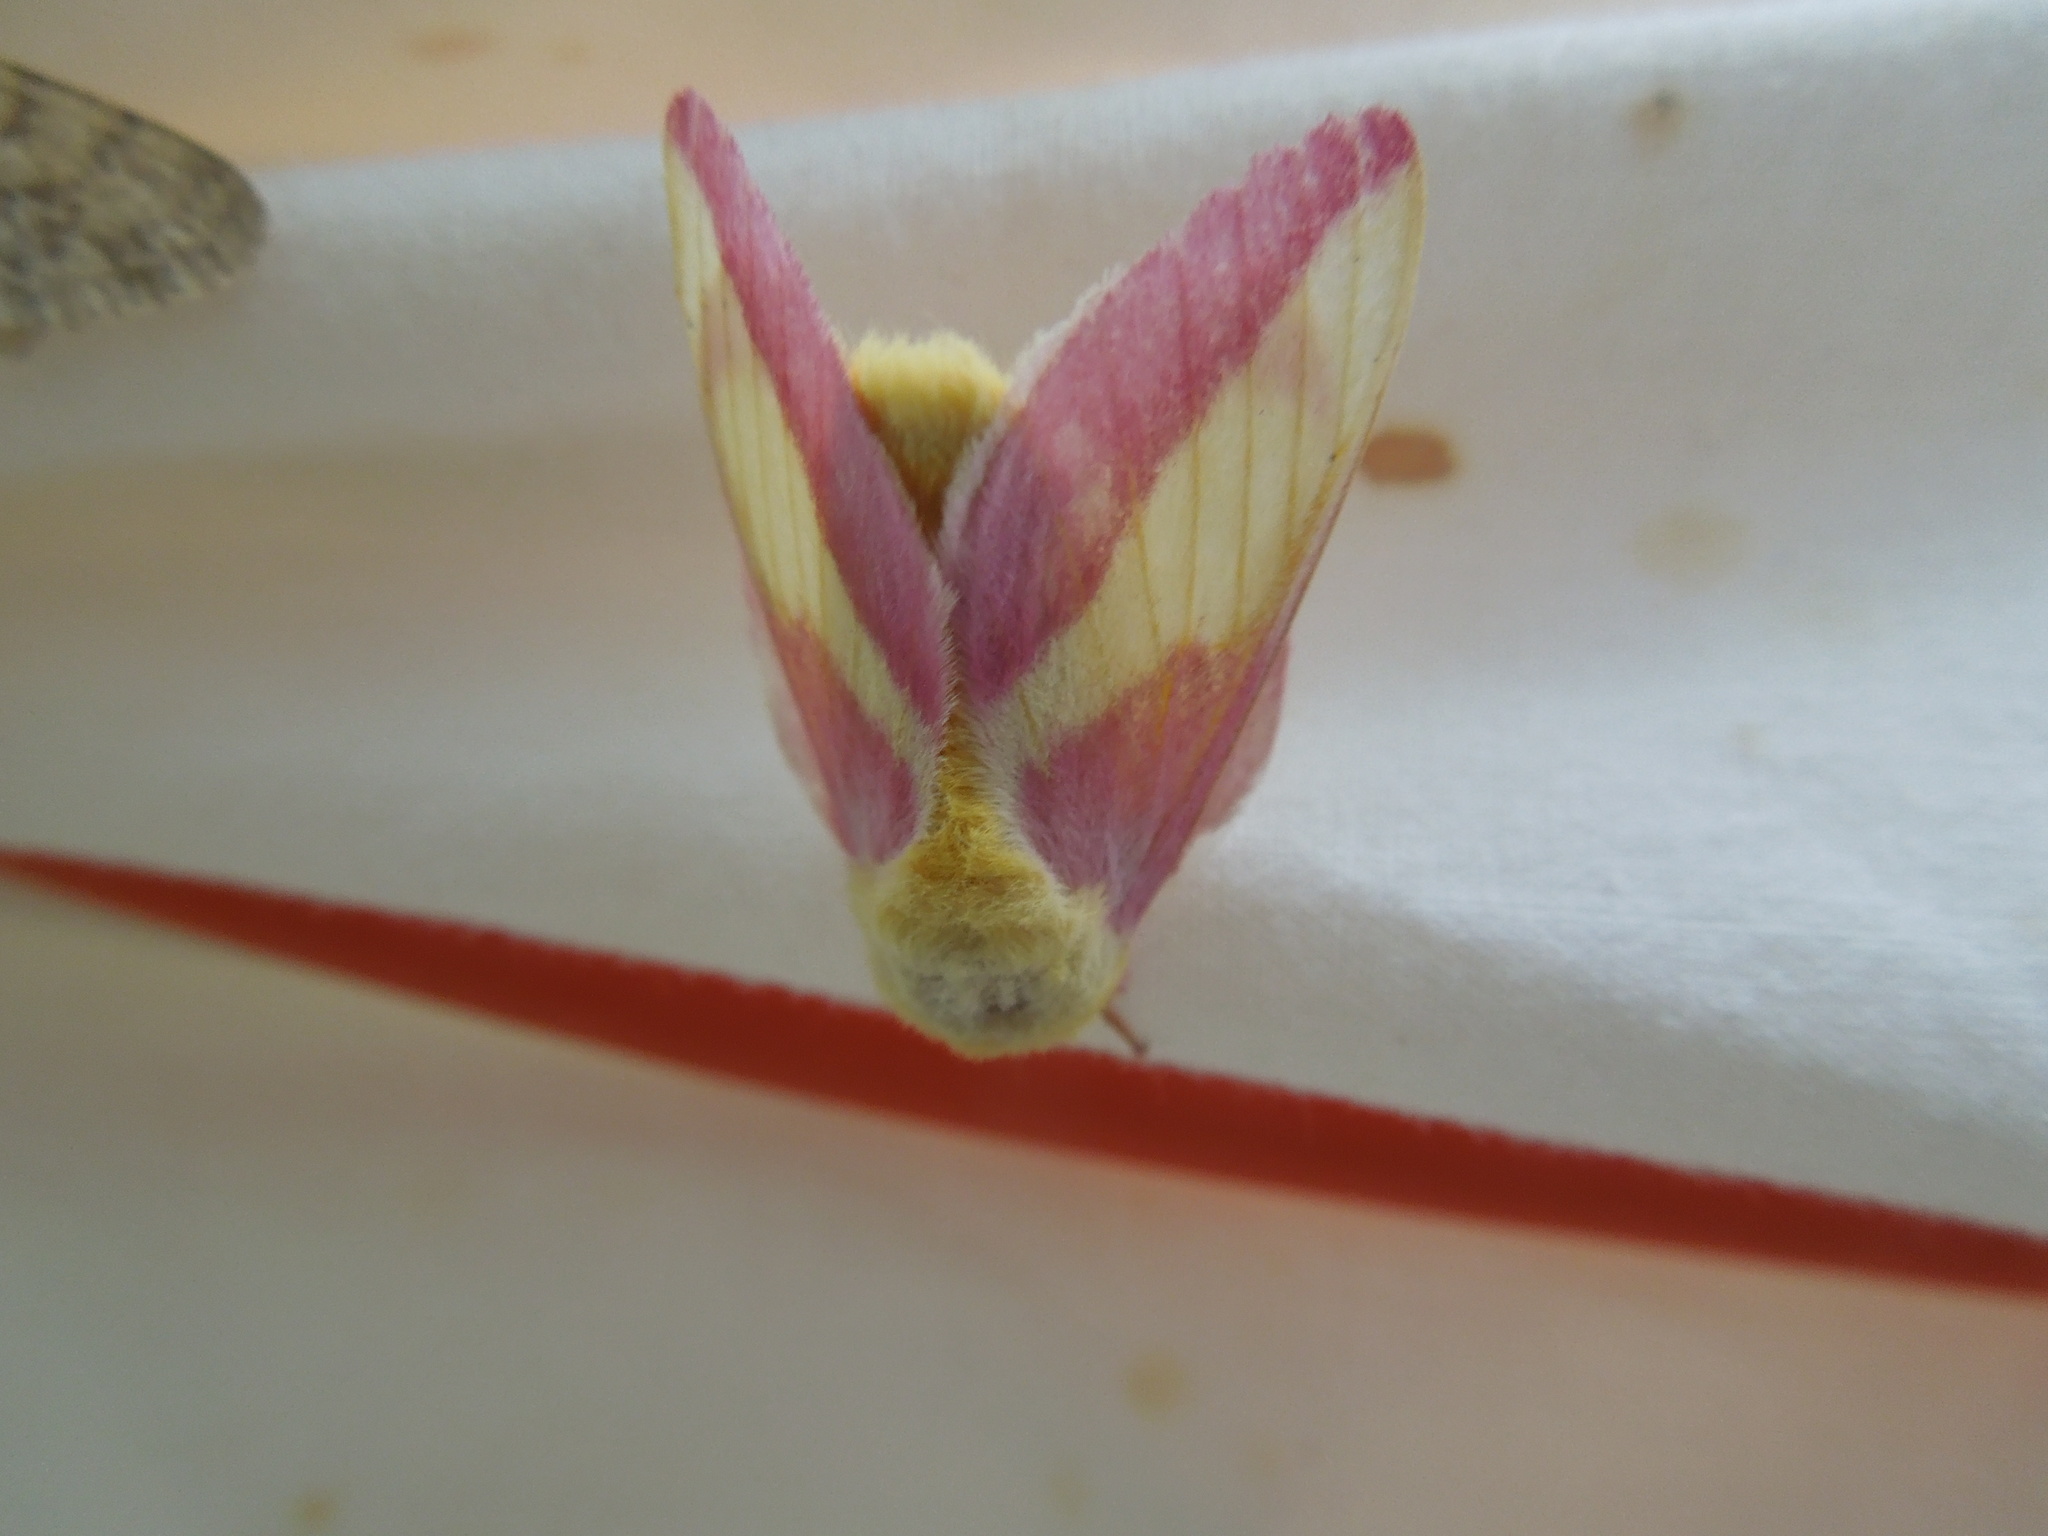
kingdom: Animalia
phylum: Arthropoda
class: Insecta
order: Lepidoptera
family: Saturniidae
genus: Dryocampa
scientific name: Dryocampa rubicunda
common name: Rosy maple moth
